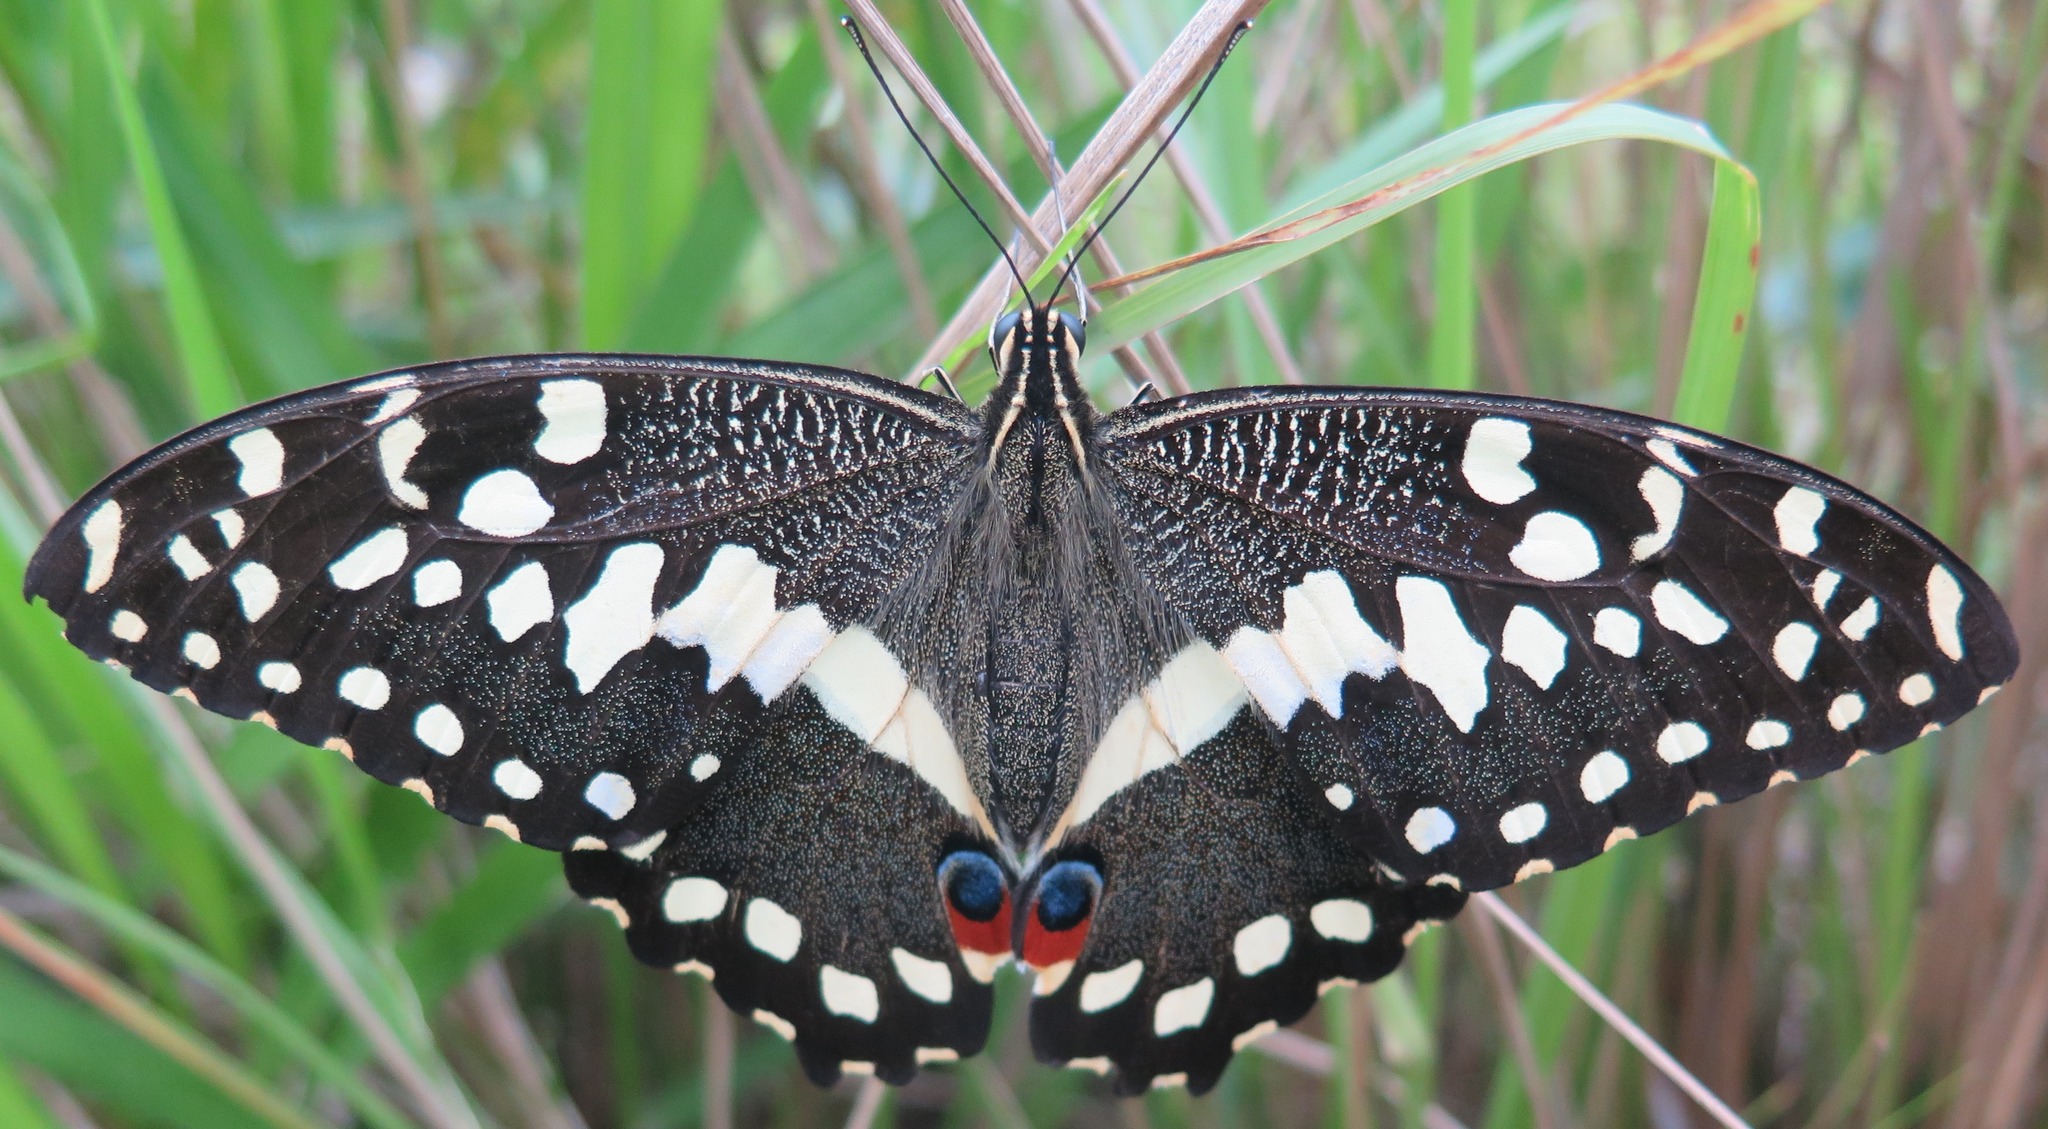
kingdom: Animalia
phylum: Arthropoda
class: Insecta
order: Lepidoptera
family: Papilionidae
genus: Papilio
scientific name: Papilio demodocus
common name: Christmas butterfly
